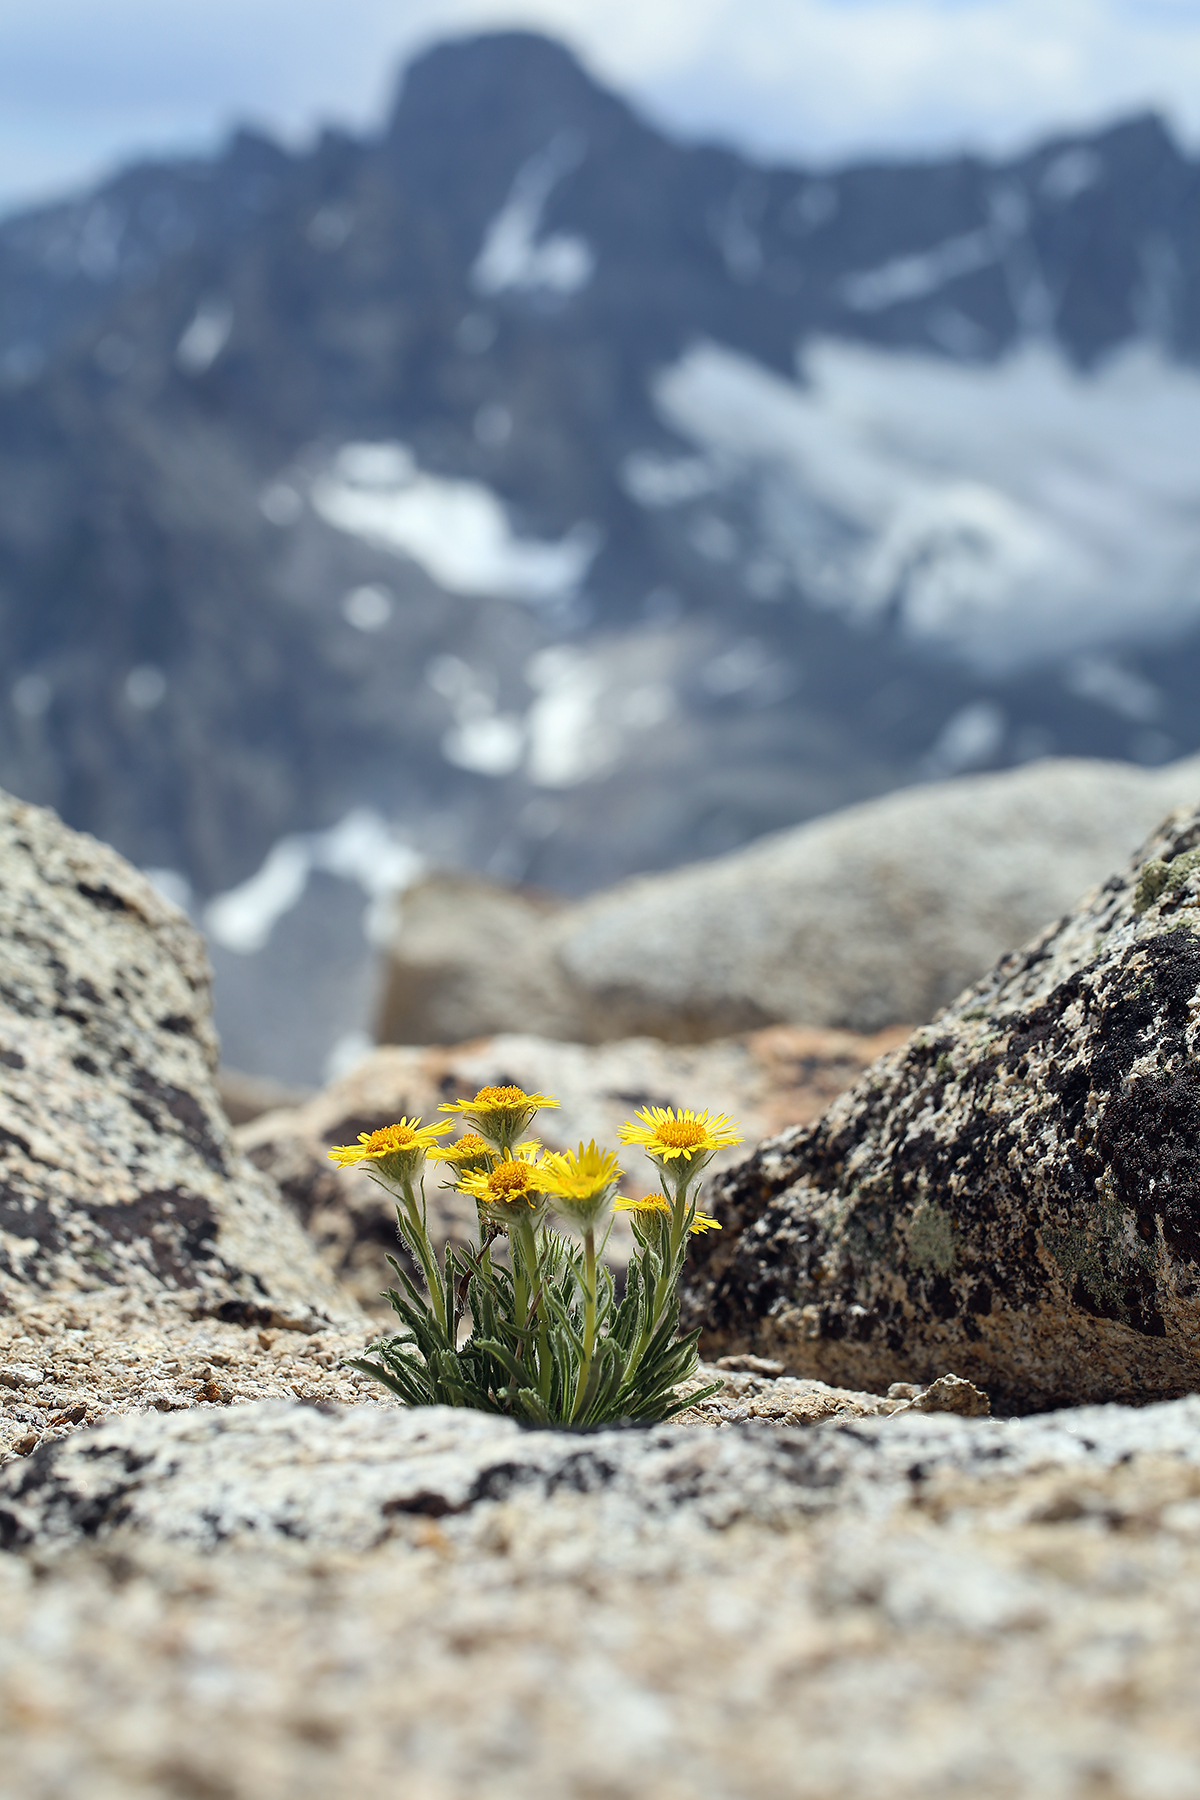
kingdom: Plantae
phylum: Tracheophyta
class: Magnoliopsida
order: Asterales
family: Asteraceae
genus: Hulsea
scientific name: Hulsea algida
